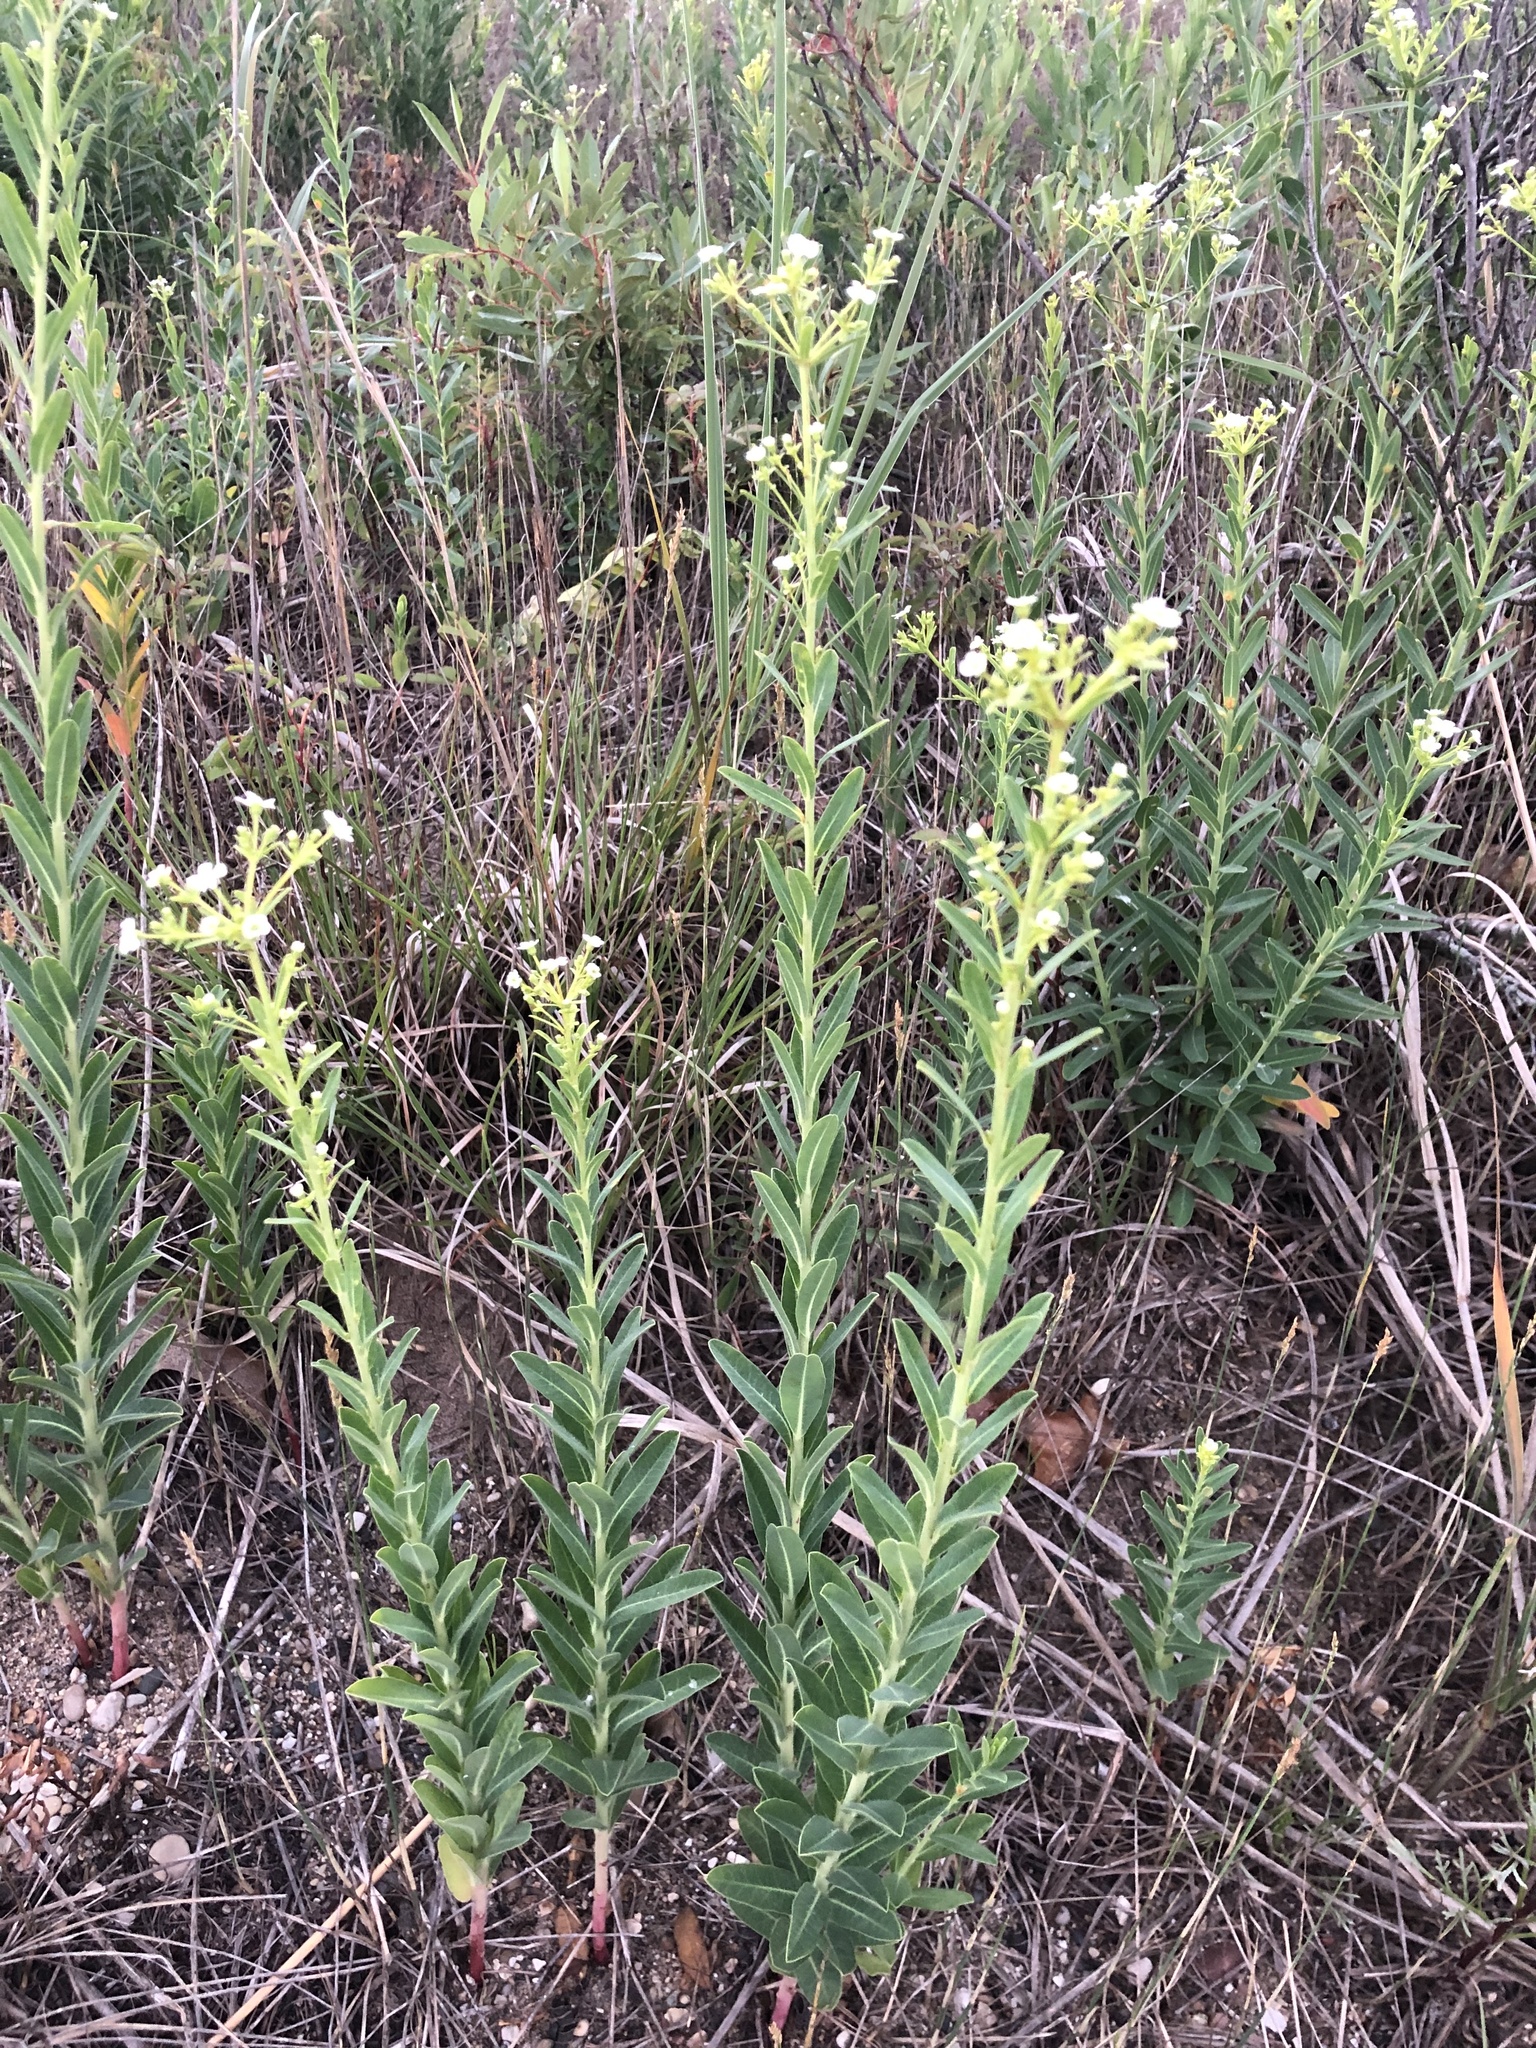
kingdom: Plantae
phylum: Tracheophyta
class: Magnoliopsida
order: Malpighiales
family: Euphorbiaceae
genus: Euphorbia
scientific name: Euphorbia corollata
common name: Flowering spurge
